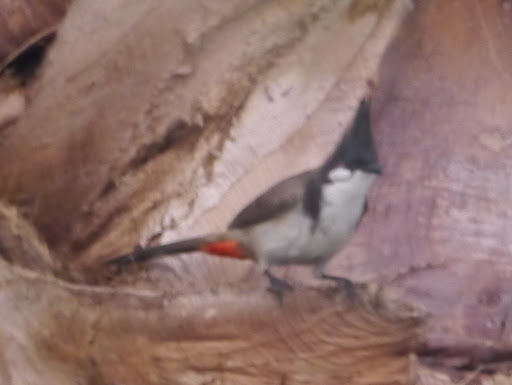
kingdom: Animalia
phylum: Chordata
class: Aves
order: Passeriformes
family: Pycnonotidae
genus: Pycnonotus
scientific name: Pycnonotus jocosus
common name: Red-whiskered bulbul
